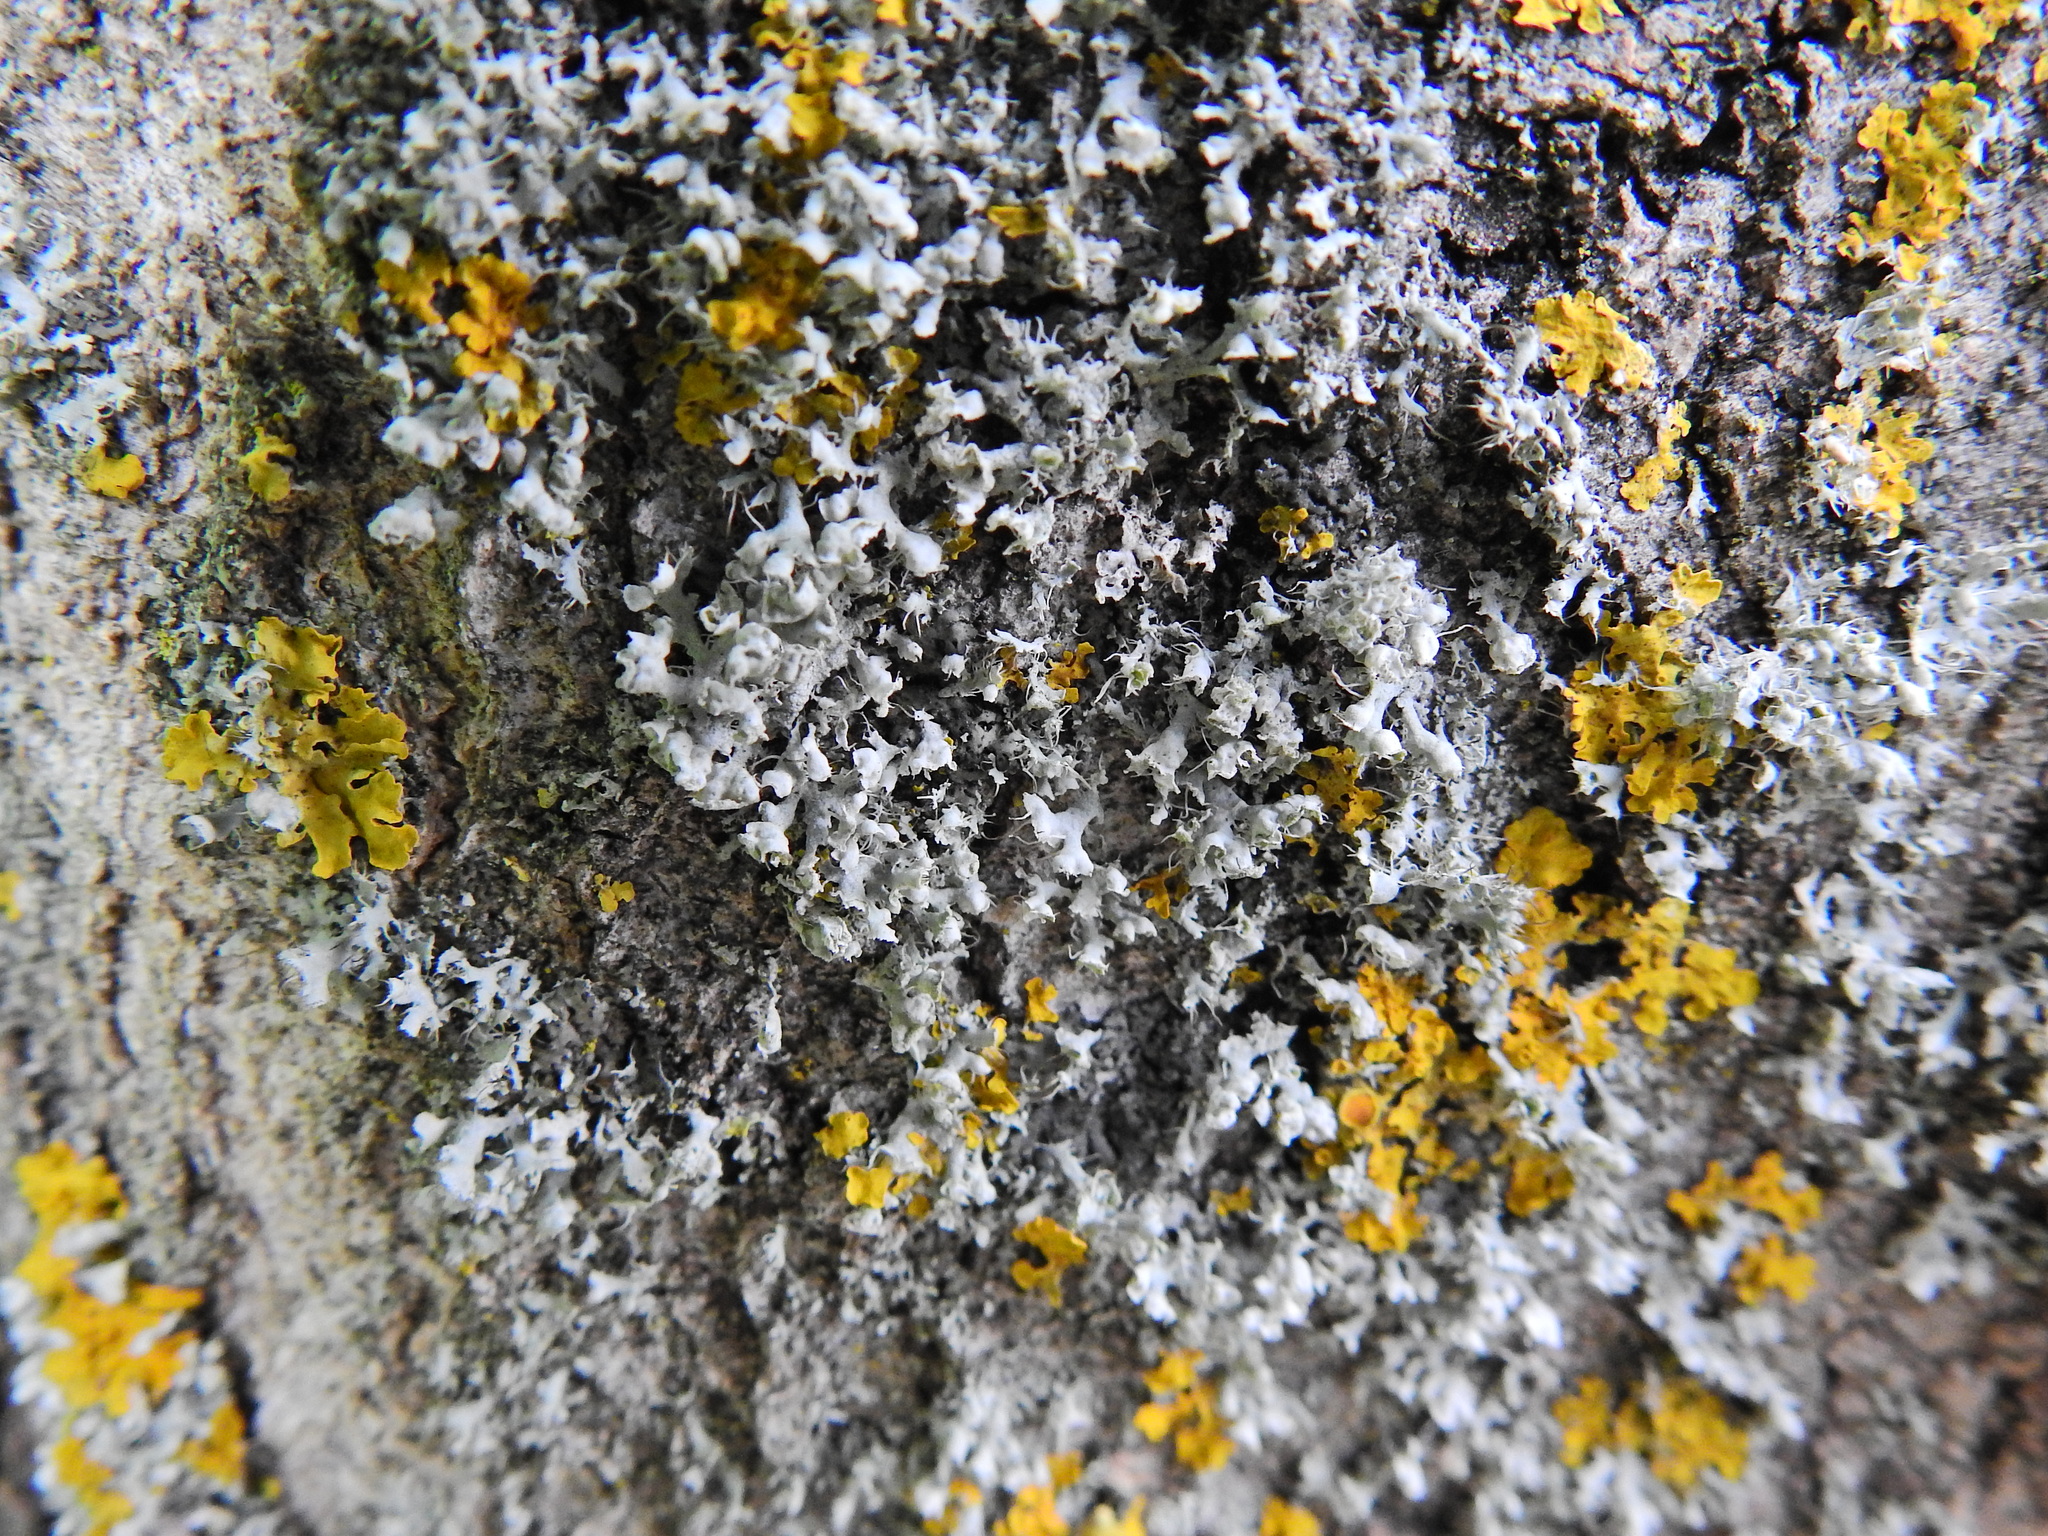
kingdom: Fungi
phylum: Ascomycota
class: Lecanoromycetes
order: Caliciales
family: Physciaceae
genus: Physcia
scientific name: Physcia adscendens
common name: Hooded rosette lichen
